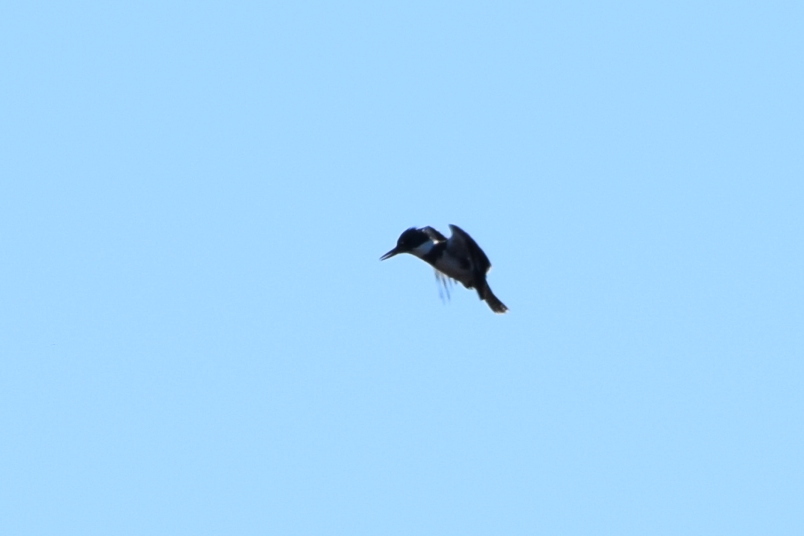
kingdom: Animalia
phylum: Chordata
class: Aves
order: Coraciiformes
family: Alcedinidae
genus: Megaceryle
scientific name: Megaceryle alcyon
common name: Belted kingfisher
